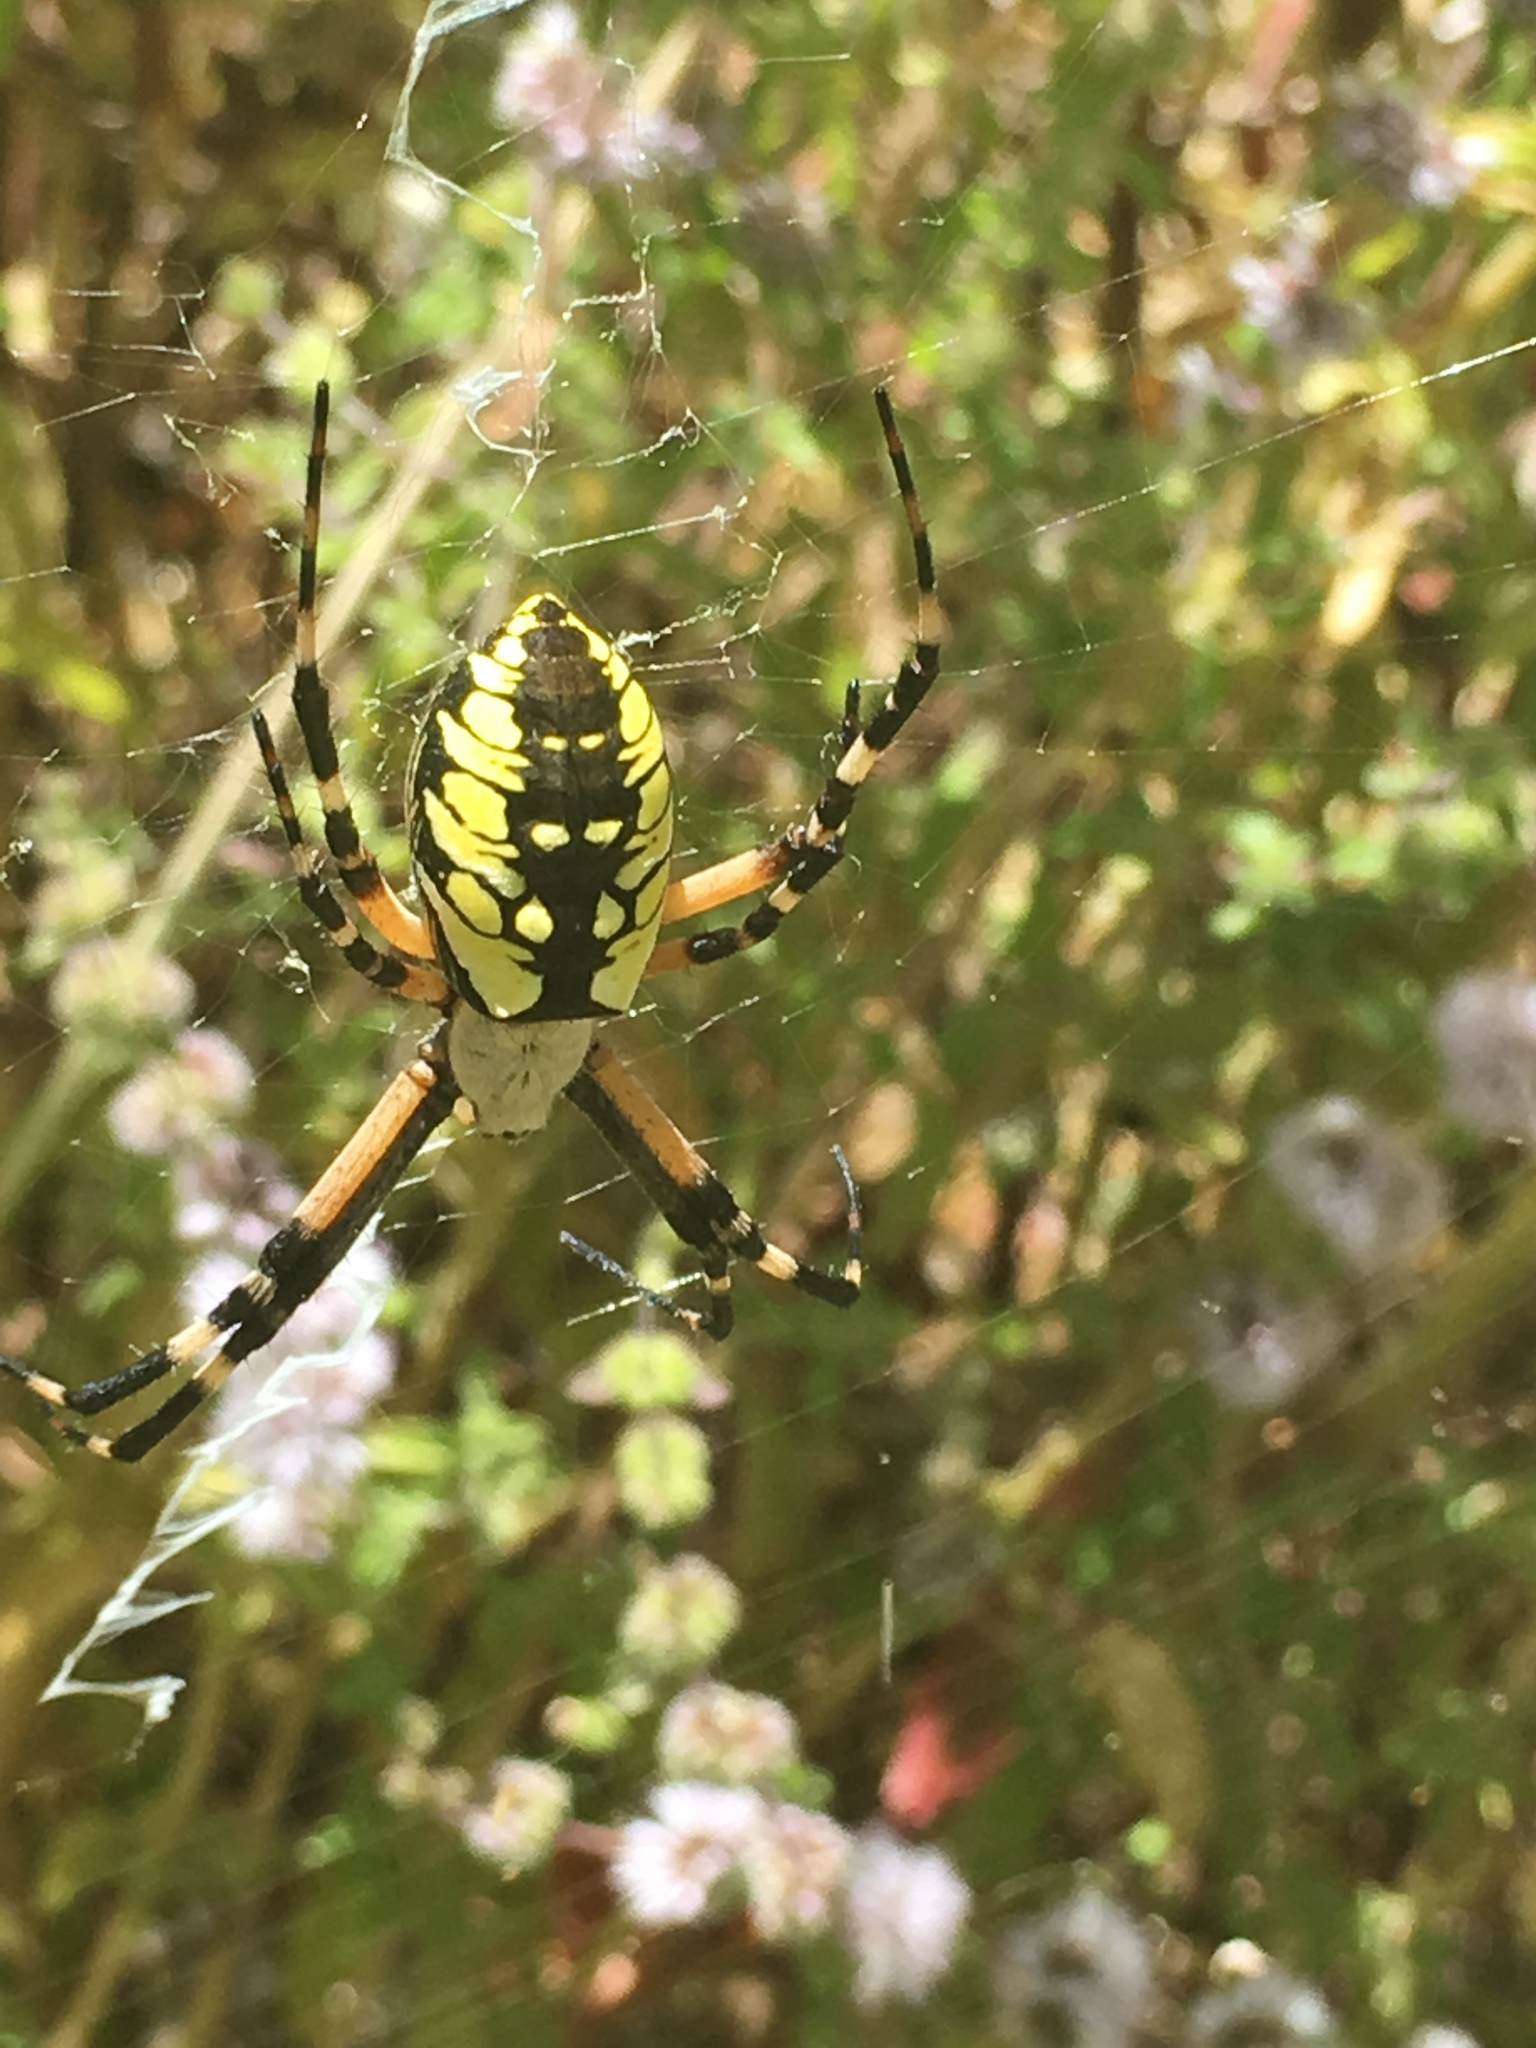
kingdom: Animalia
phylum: Arthropoda
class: Arachnida
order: Araneae
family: Araneidae
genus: Argiope
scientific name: Argiope aurantia
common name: Orb weavers
